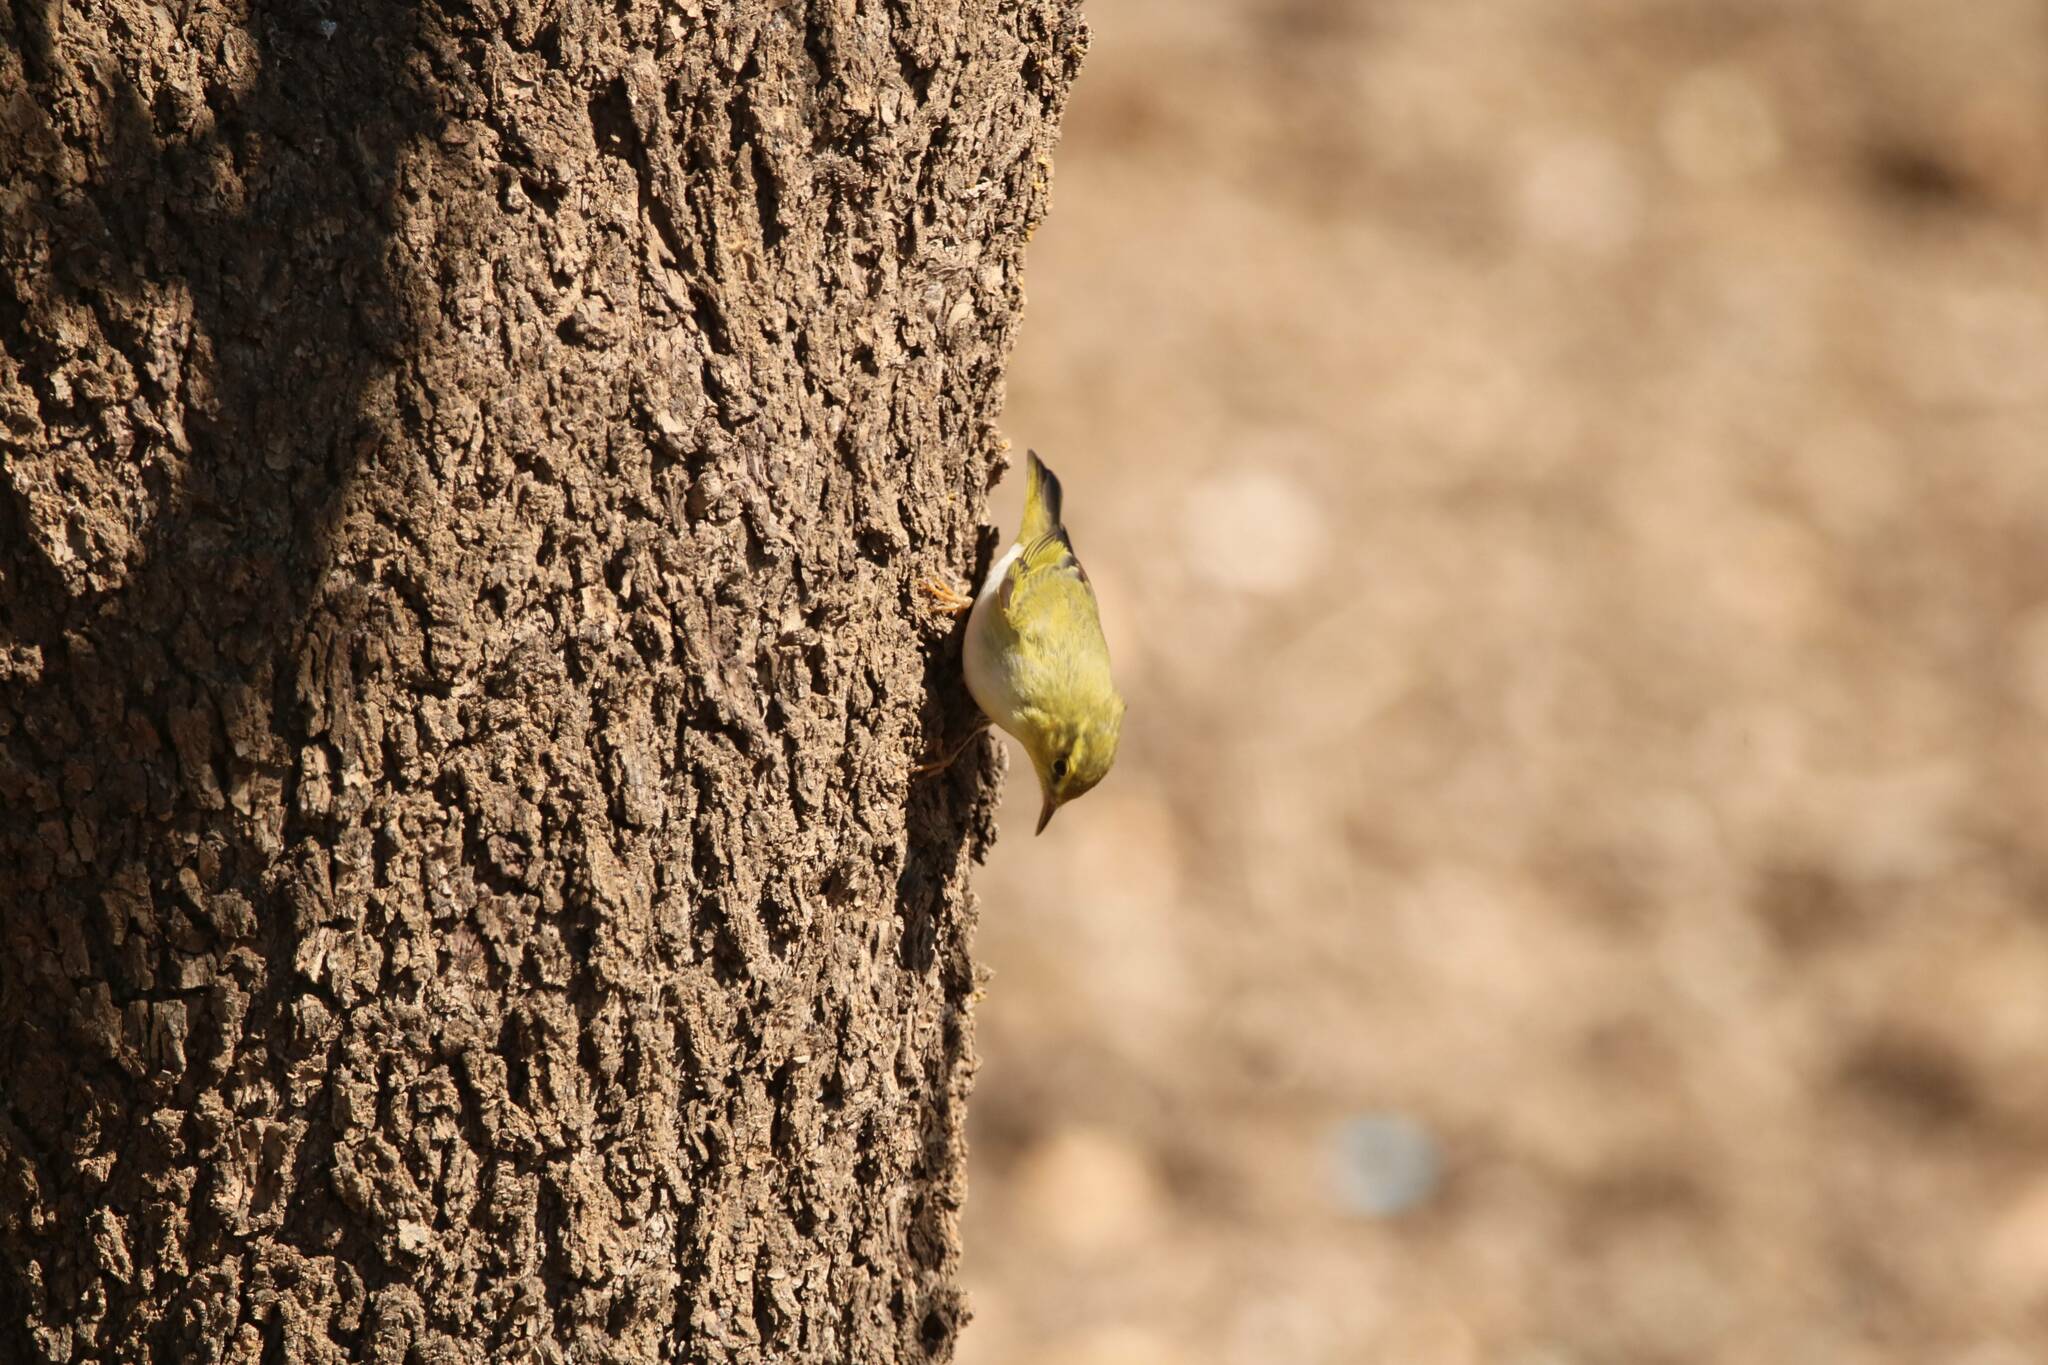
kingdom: Animalia
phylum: Chordata
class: Aves
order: Passeriformes
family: Phylloscopidae
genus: Phylloscopus
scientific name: Phylloscopus sibillatrix
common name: Wood warbler
